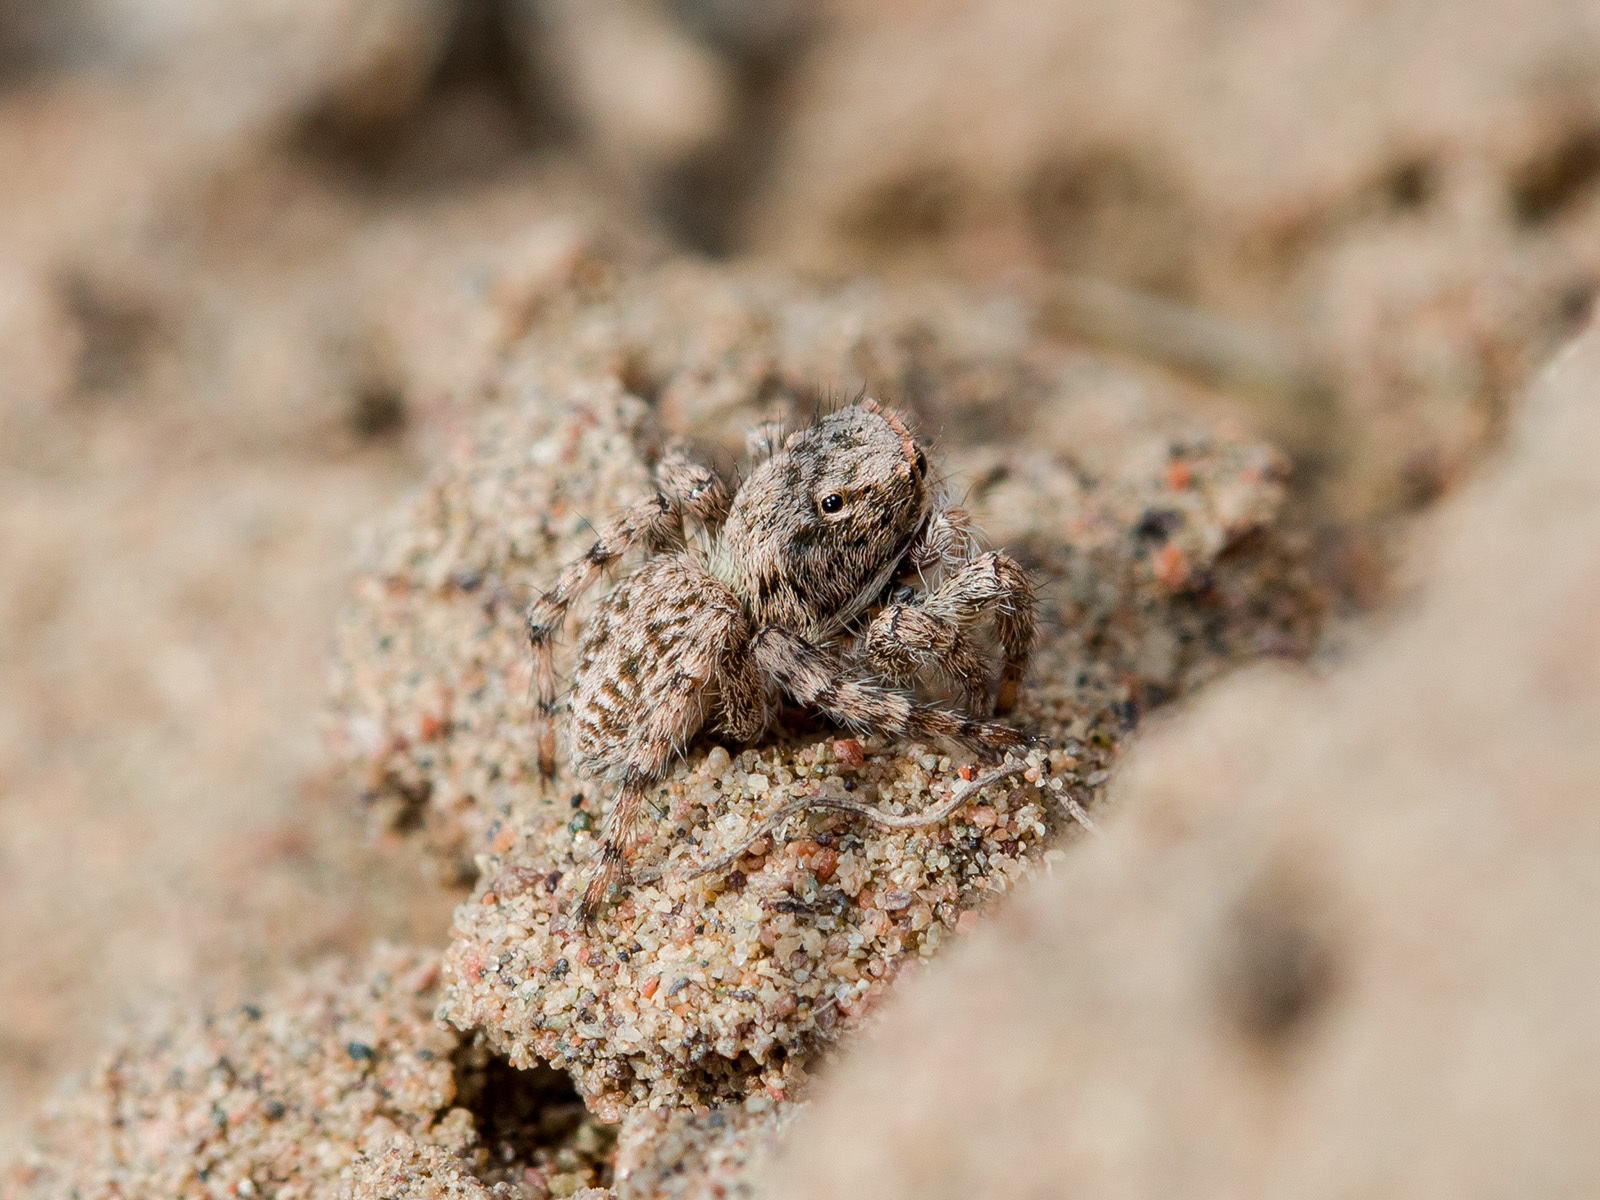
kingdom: Animalia
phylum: Arthropoda
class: Arachnida
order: Araneae
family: Salticidae
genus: Aelurillus
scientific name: Aelurillus andreevae
